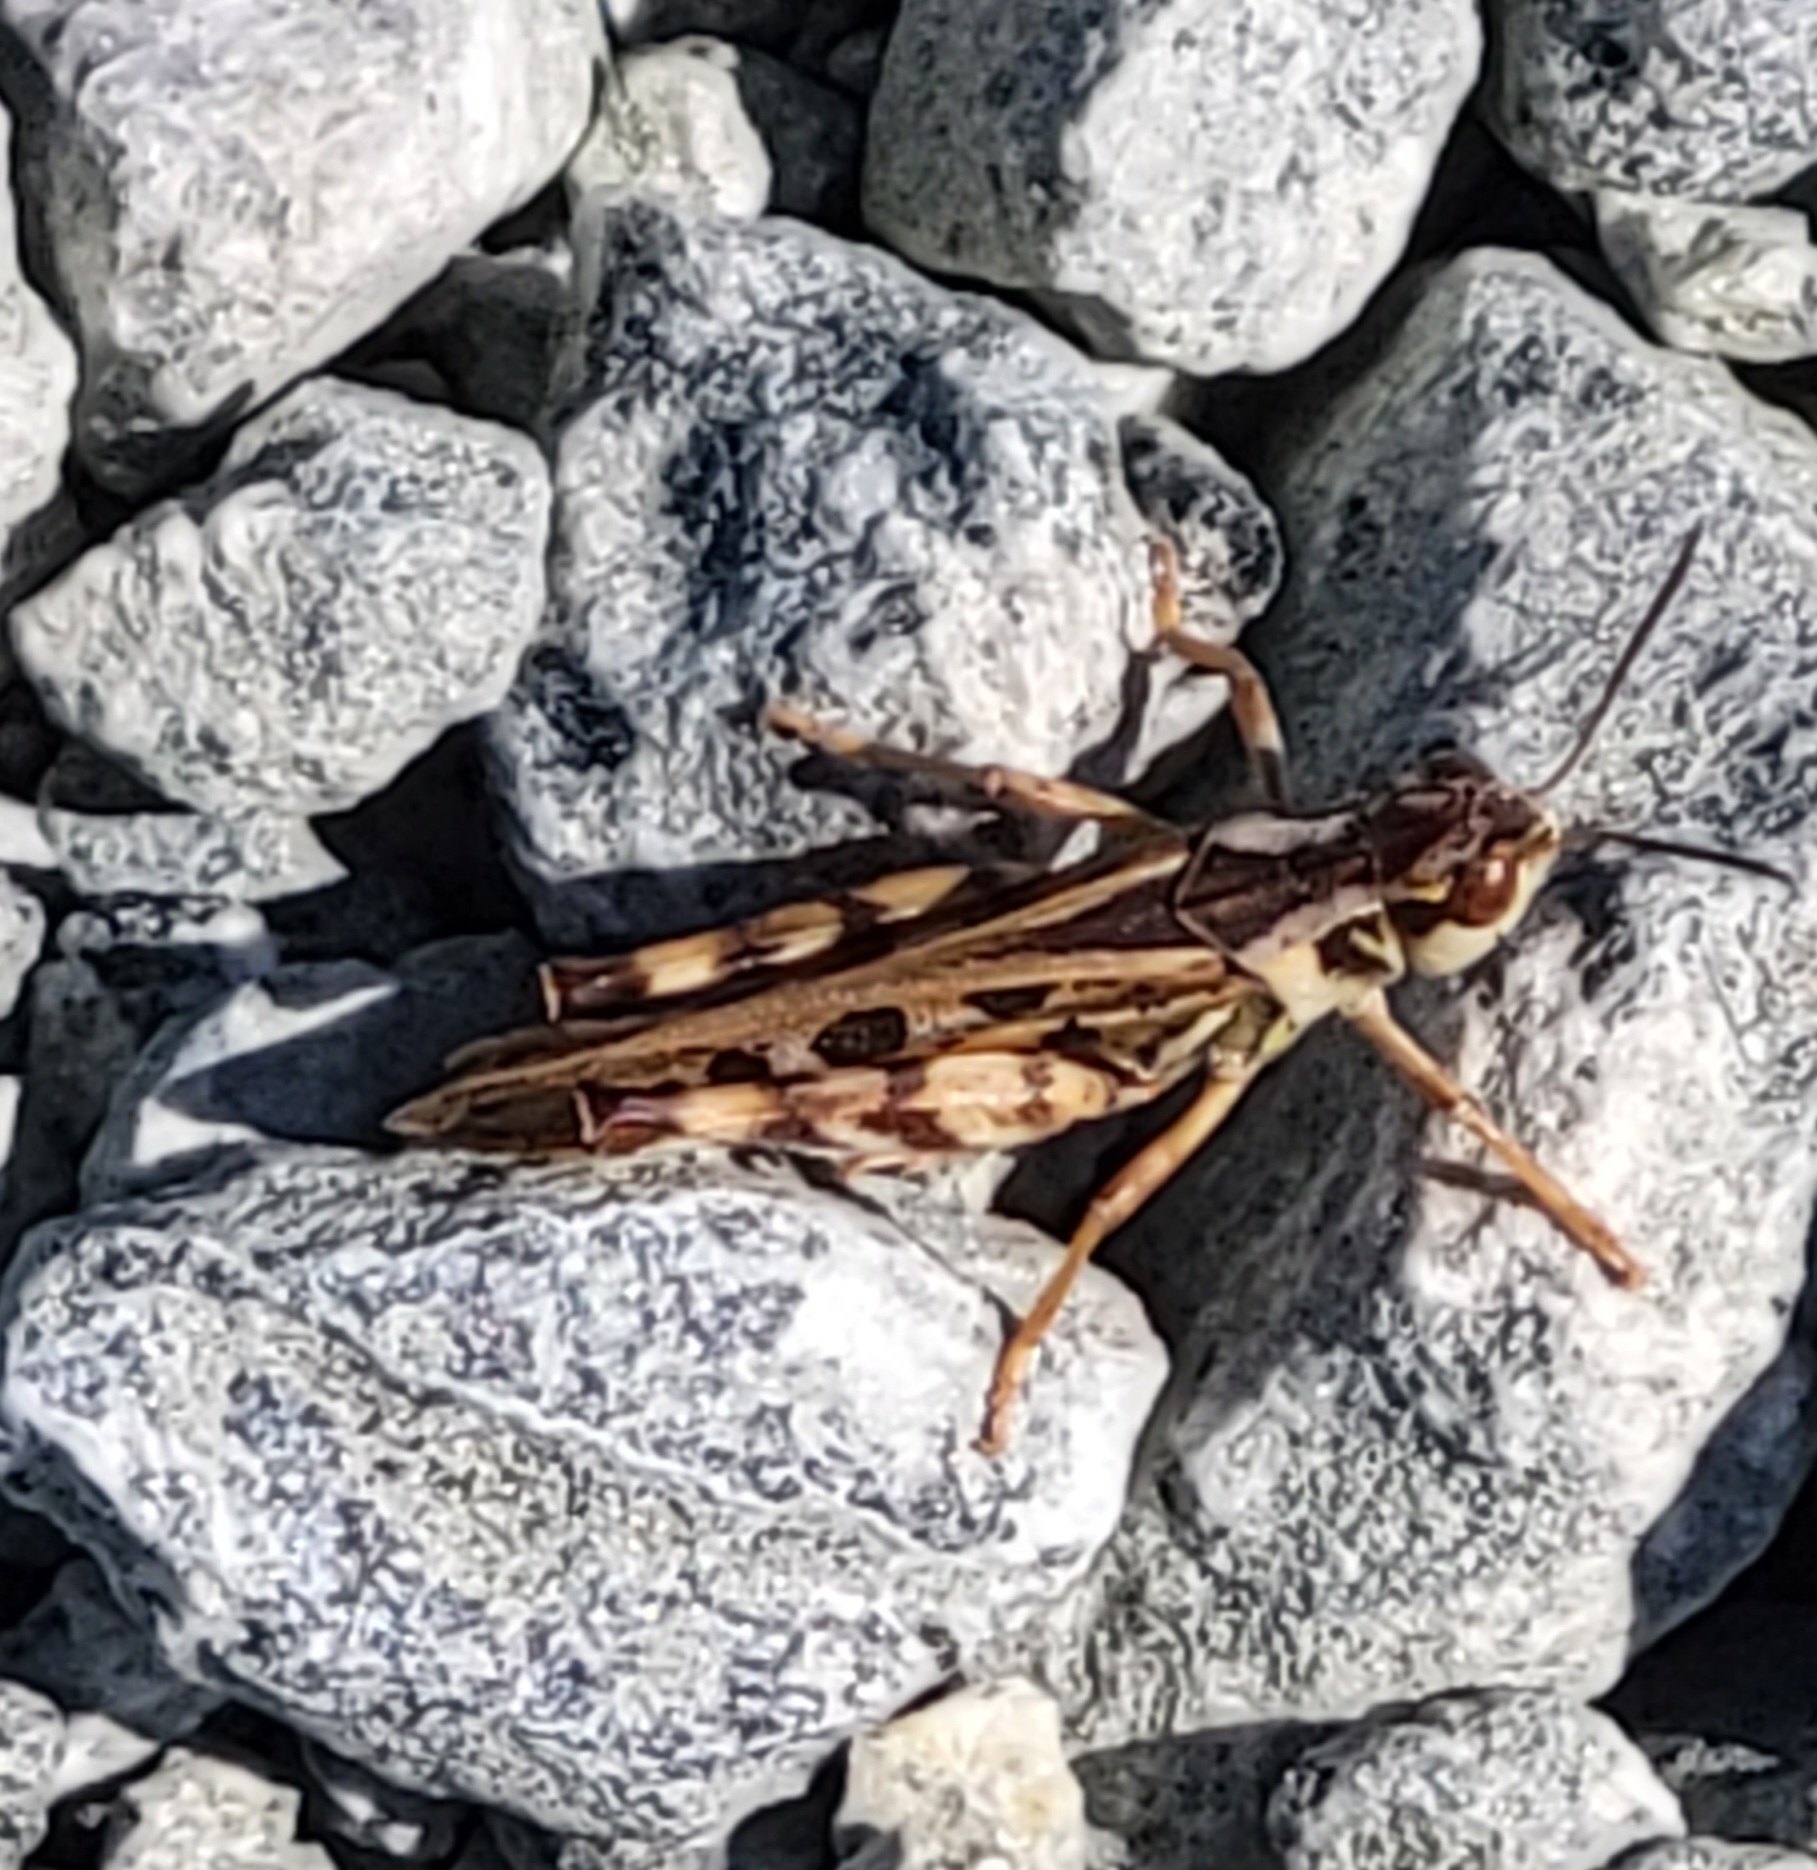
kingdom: Animalia
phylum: Arthropoda
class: Insecta
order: Orthoptera
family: Acrididae
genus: Camnula
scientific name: Camnula pellucida
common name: Clear-winged grasshopper
